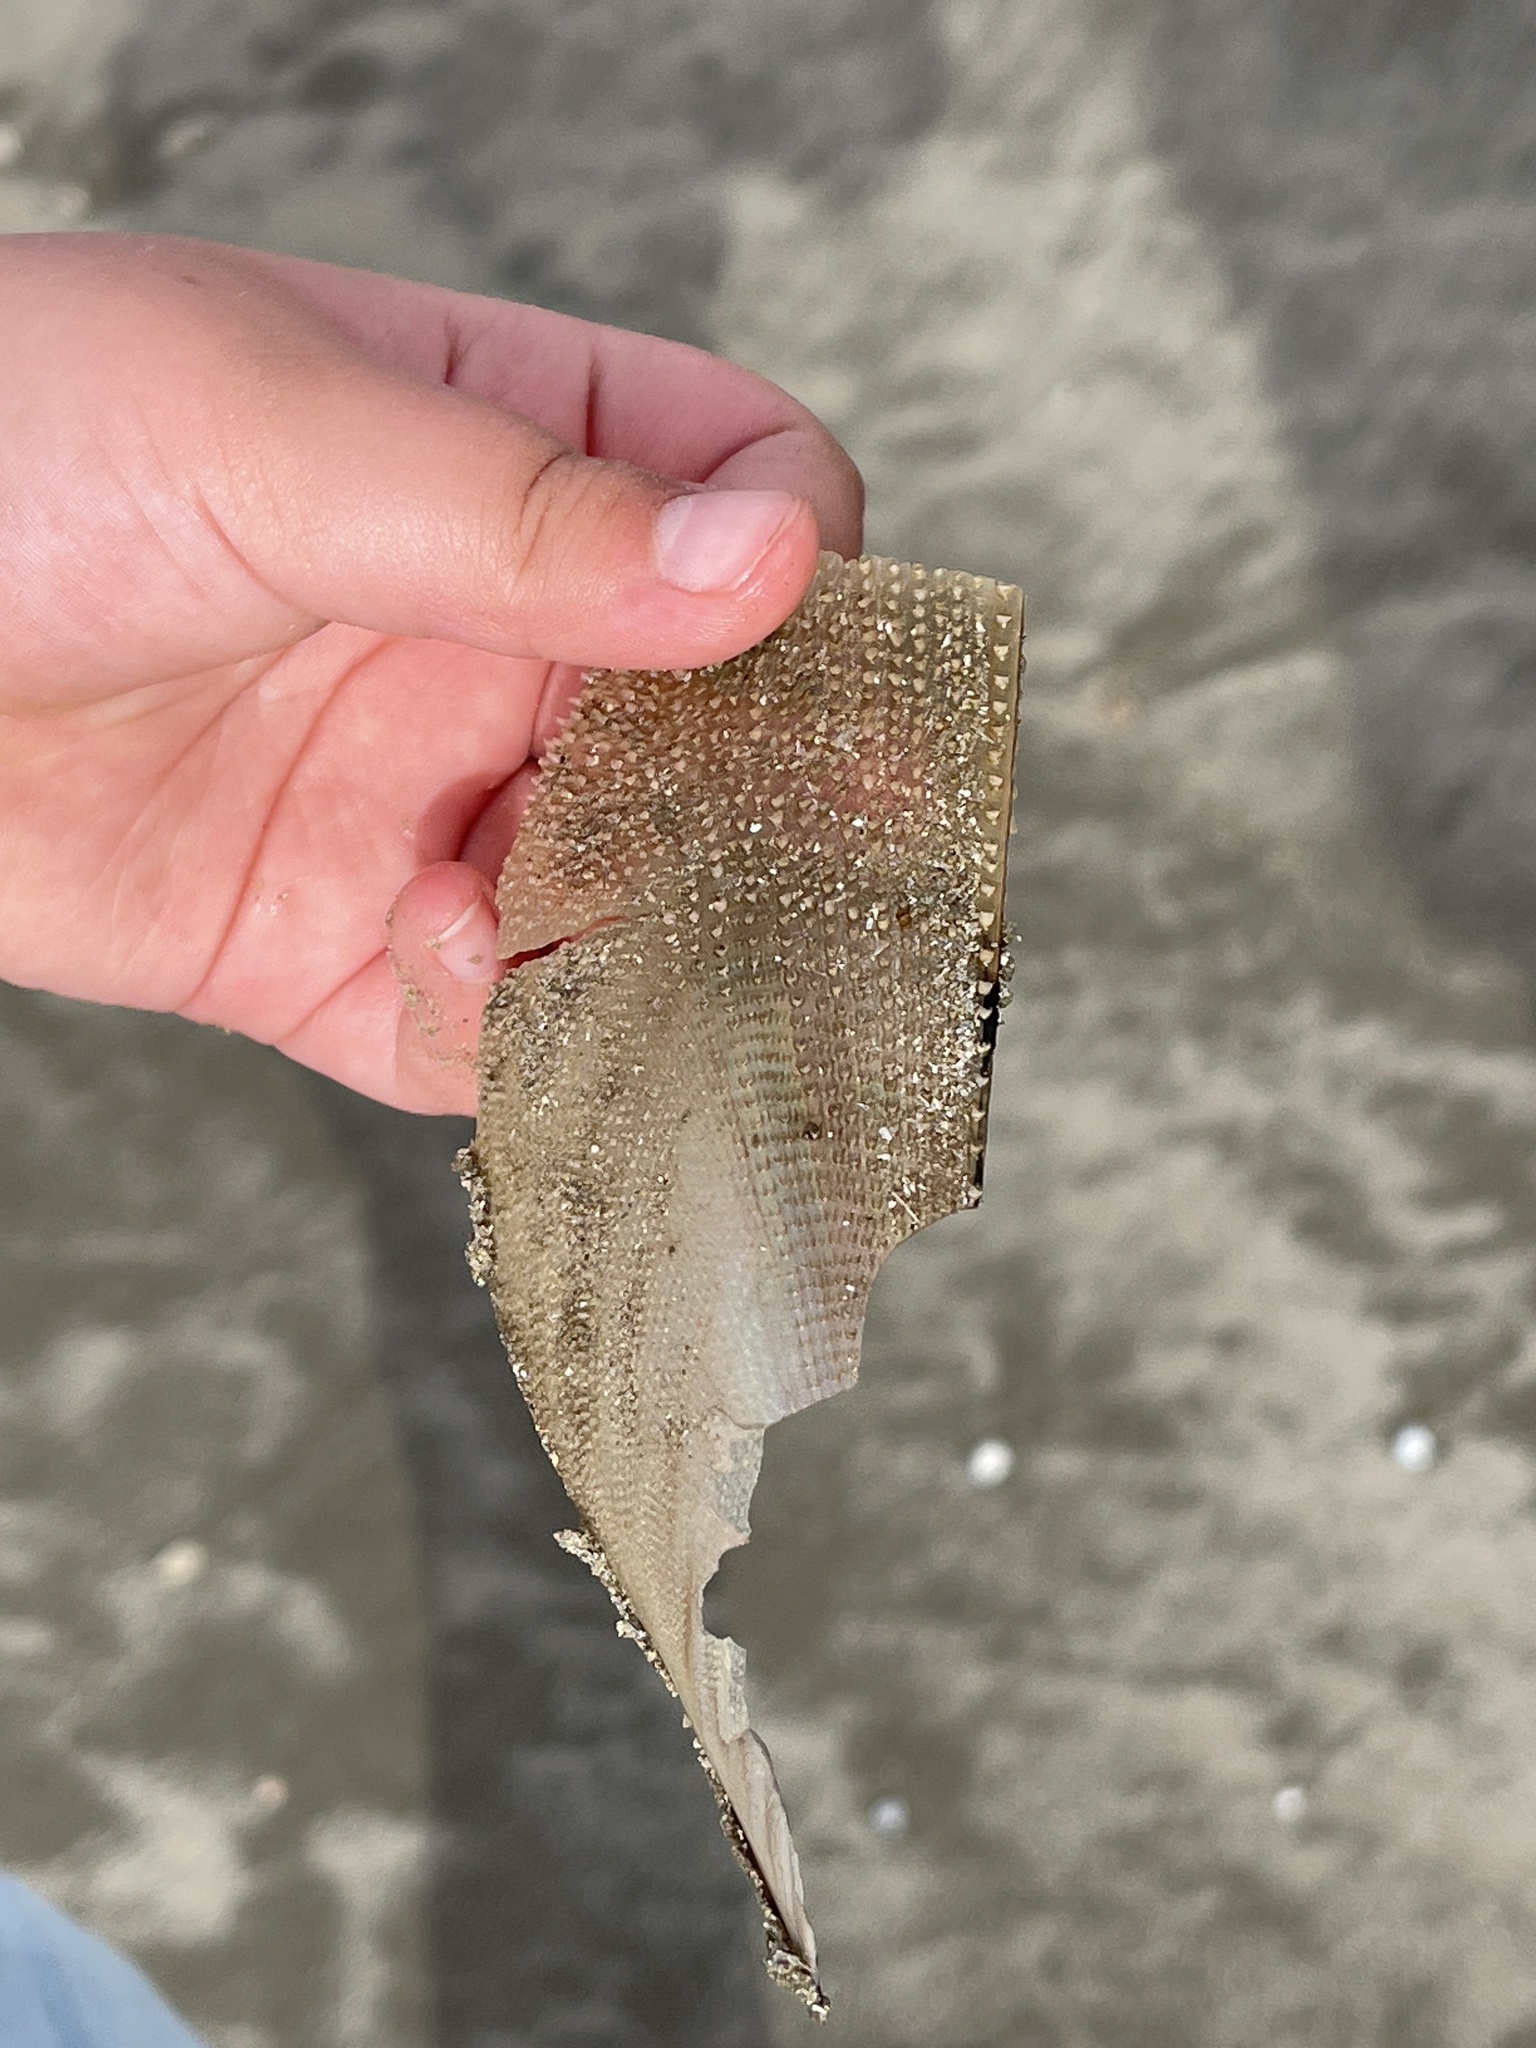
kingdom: Animalia
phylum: Mollusca
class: Bivalvia
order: Ostreida
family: Pinnidae
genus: Atrina
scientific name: Atrina serrata
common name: Saw-toothed penshell
